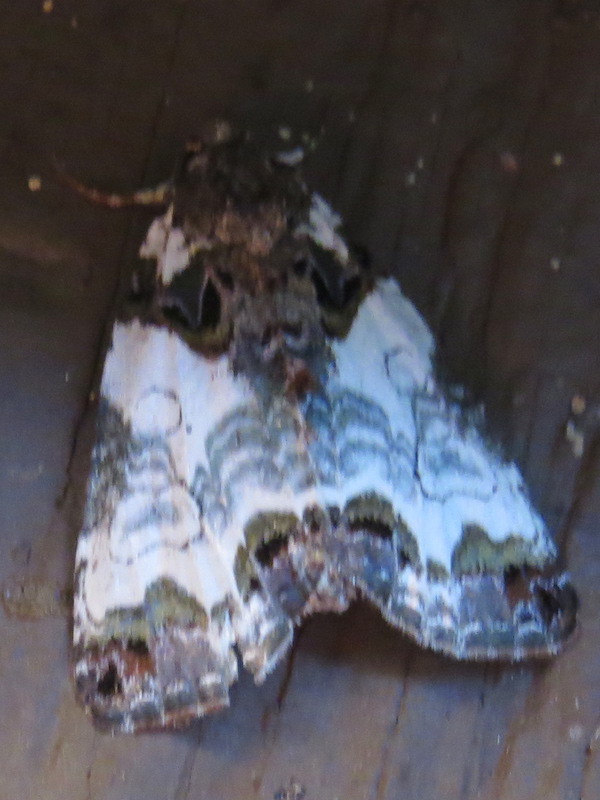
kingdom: Animalia
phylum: Arthropoda
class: Insecta
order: Lepidoptera
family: Noctuidae
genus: Cerma
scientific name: Cerma cerintha
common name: Tufted bird-dropping moth
